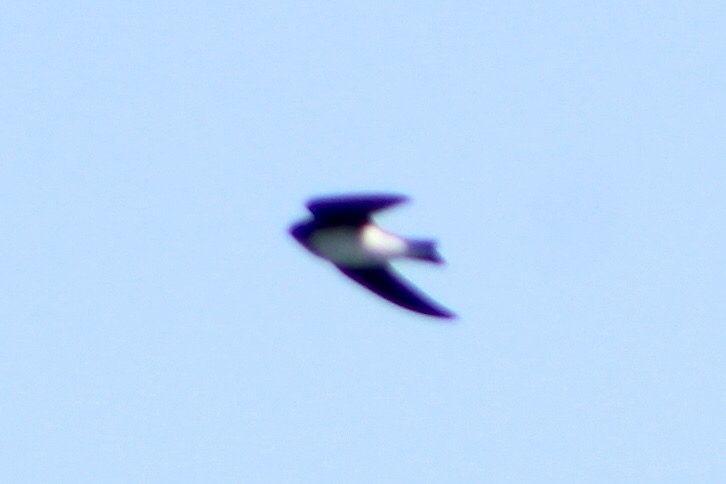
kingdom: Animalia
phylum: Chordata
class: Aves
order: Passeriformes
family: Hirundinidae
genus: Stelgidopteryx
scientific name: Stelgidopteryx serripennis
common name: Northern rough-winged swallow
